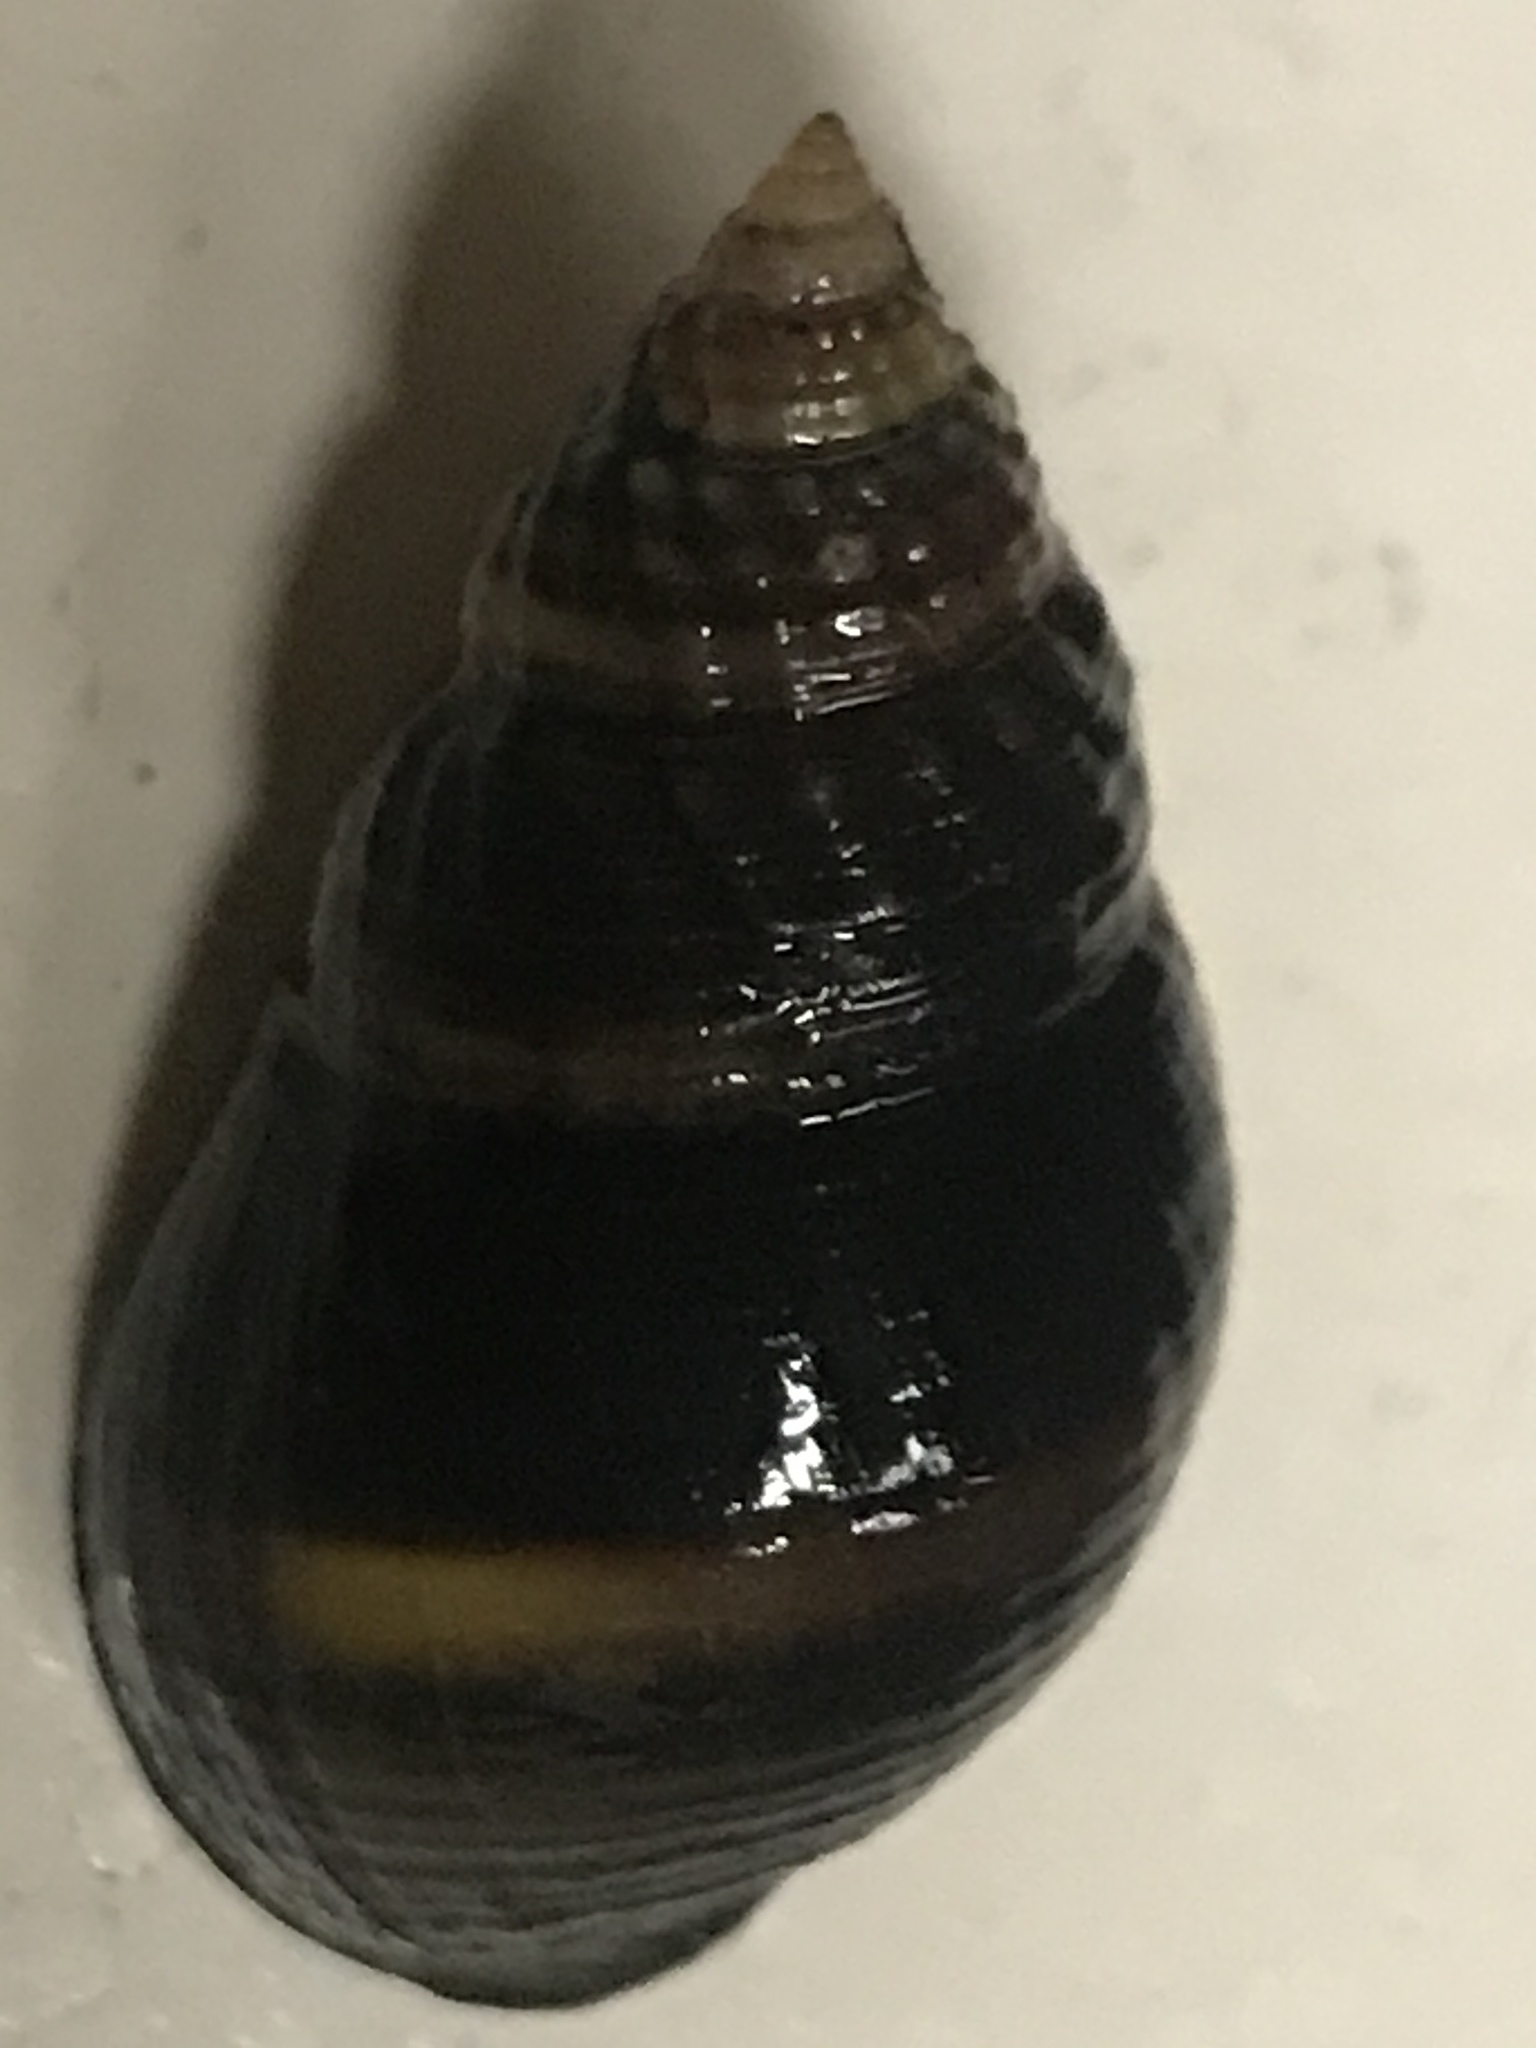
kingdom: Animalia
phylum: Mollusca
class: Gastropoda
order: Neogastropoda
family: Nassariidae
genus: Ilyanassa
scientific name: Ilyanassa obsoleta
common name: Eastern mudsnail
